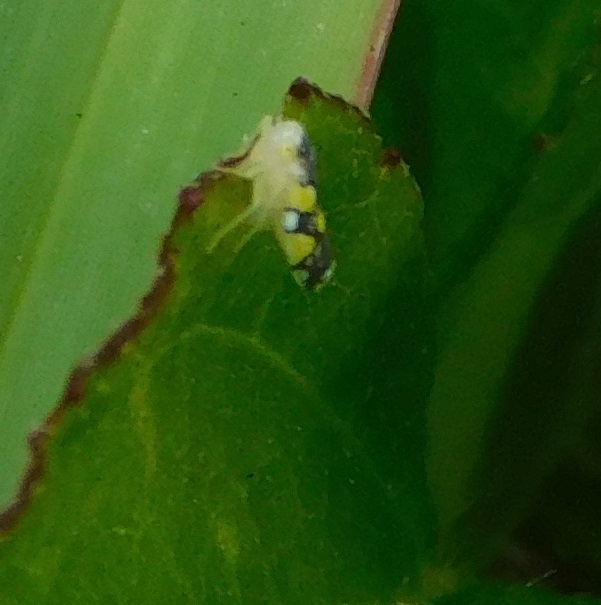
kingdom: Animalia
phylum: Arthropoda
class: Insecta
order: Hemiptera
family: Cicadellidae
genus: Protalebrella
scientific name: Protalebrella brasiliensis
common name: Brasilian leafhopper
